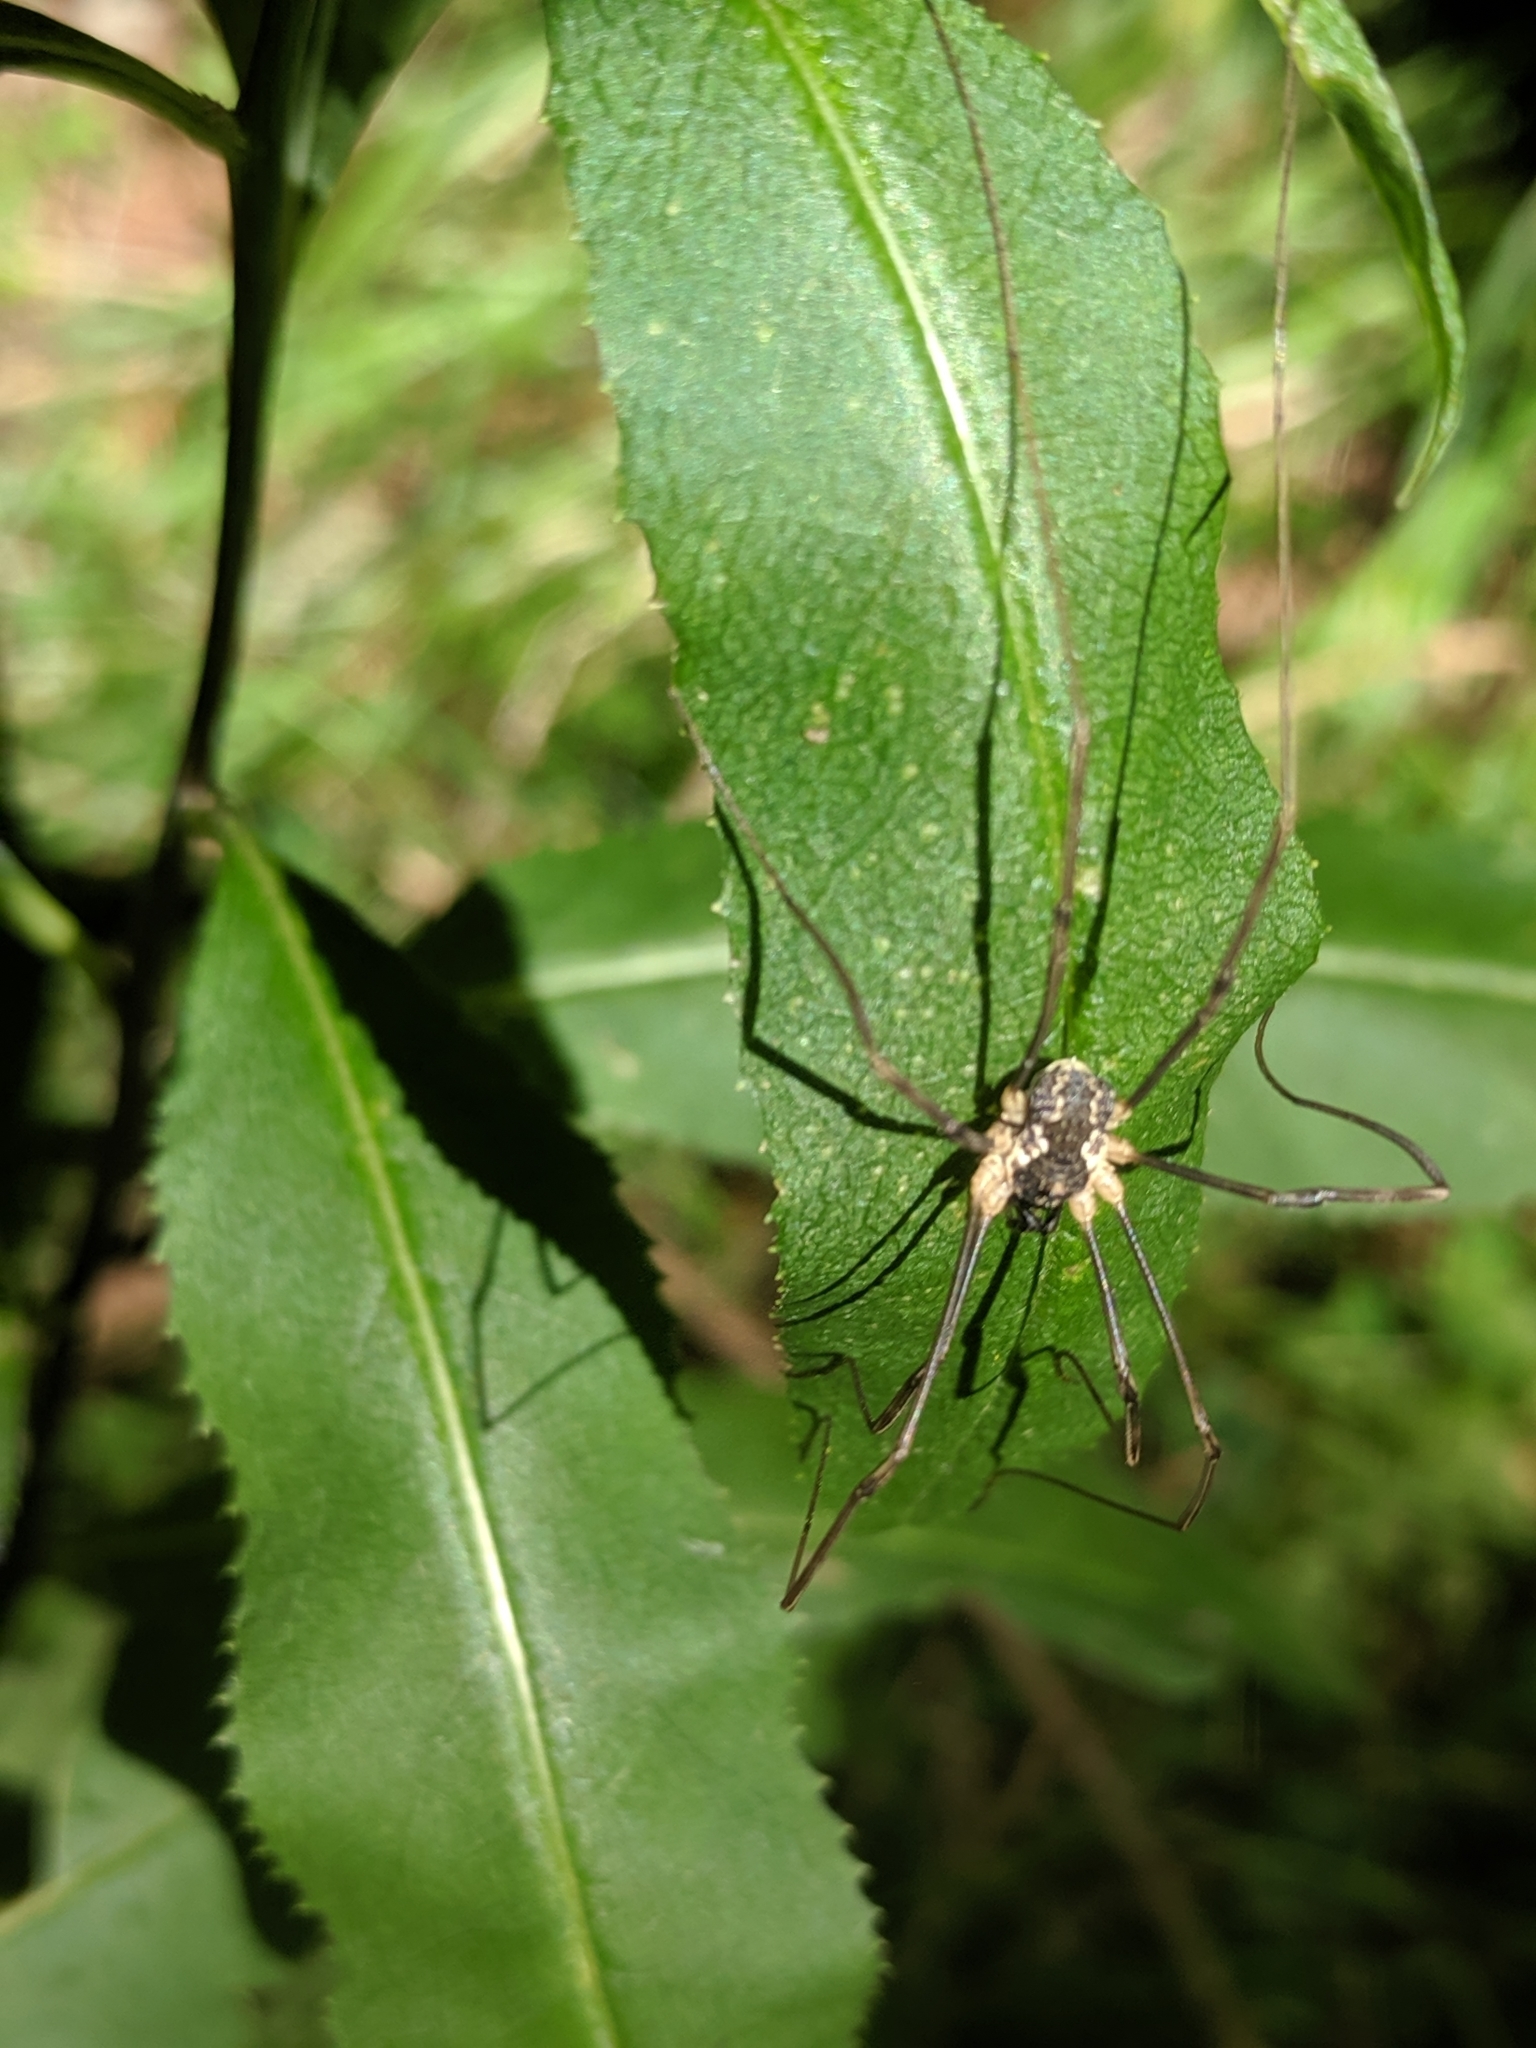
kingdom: Animalia
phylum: Arthropoda
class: Arachnida
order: Opiliones
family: Phalangiidae
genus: Mitopus
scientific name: Mitopus morio
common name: Saddleback harvestman
